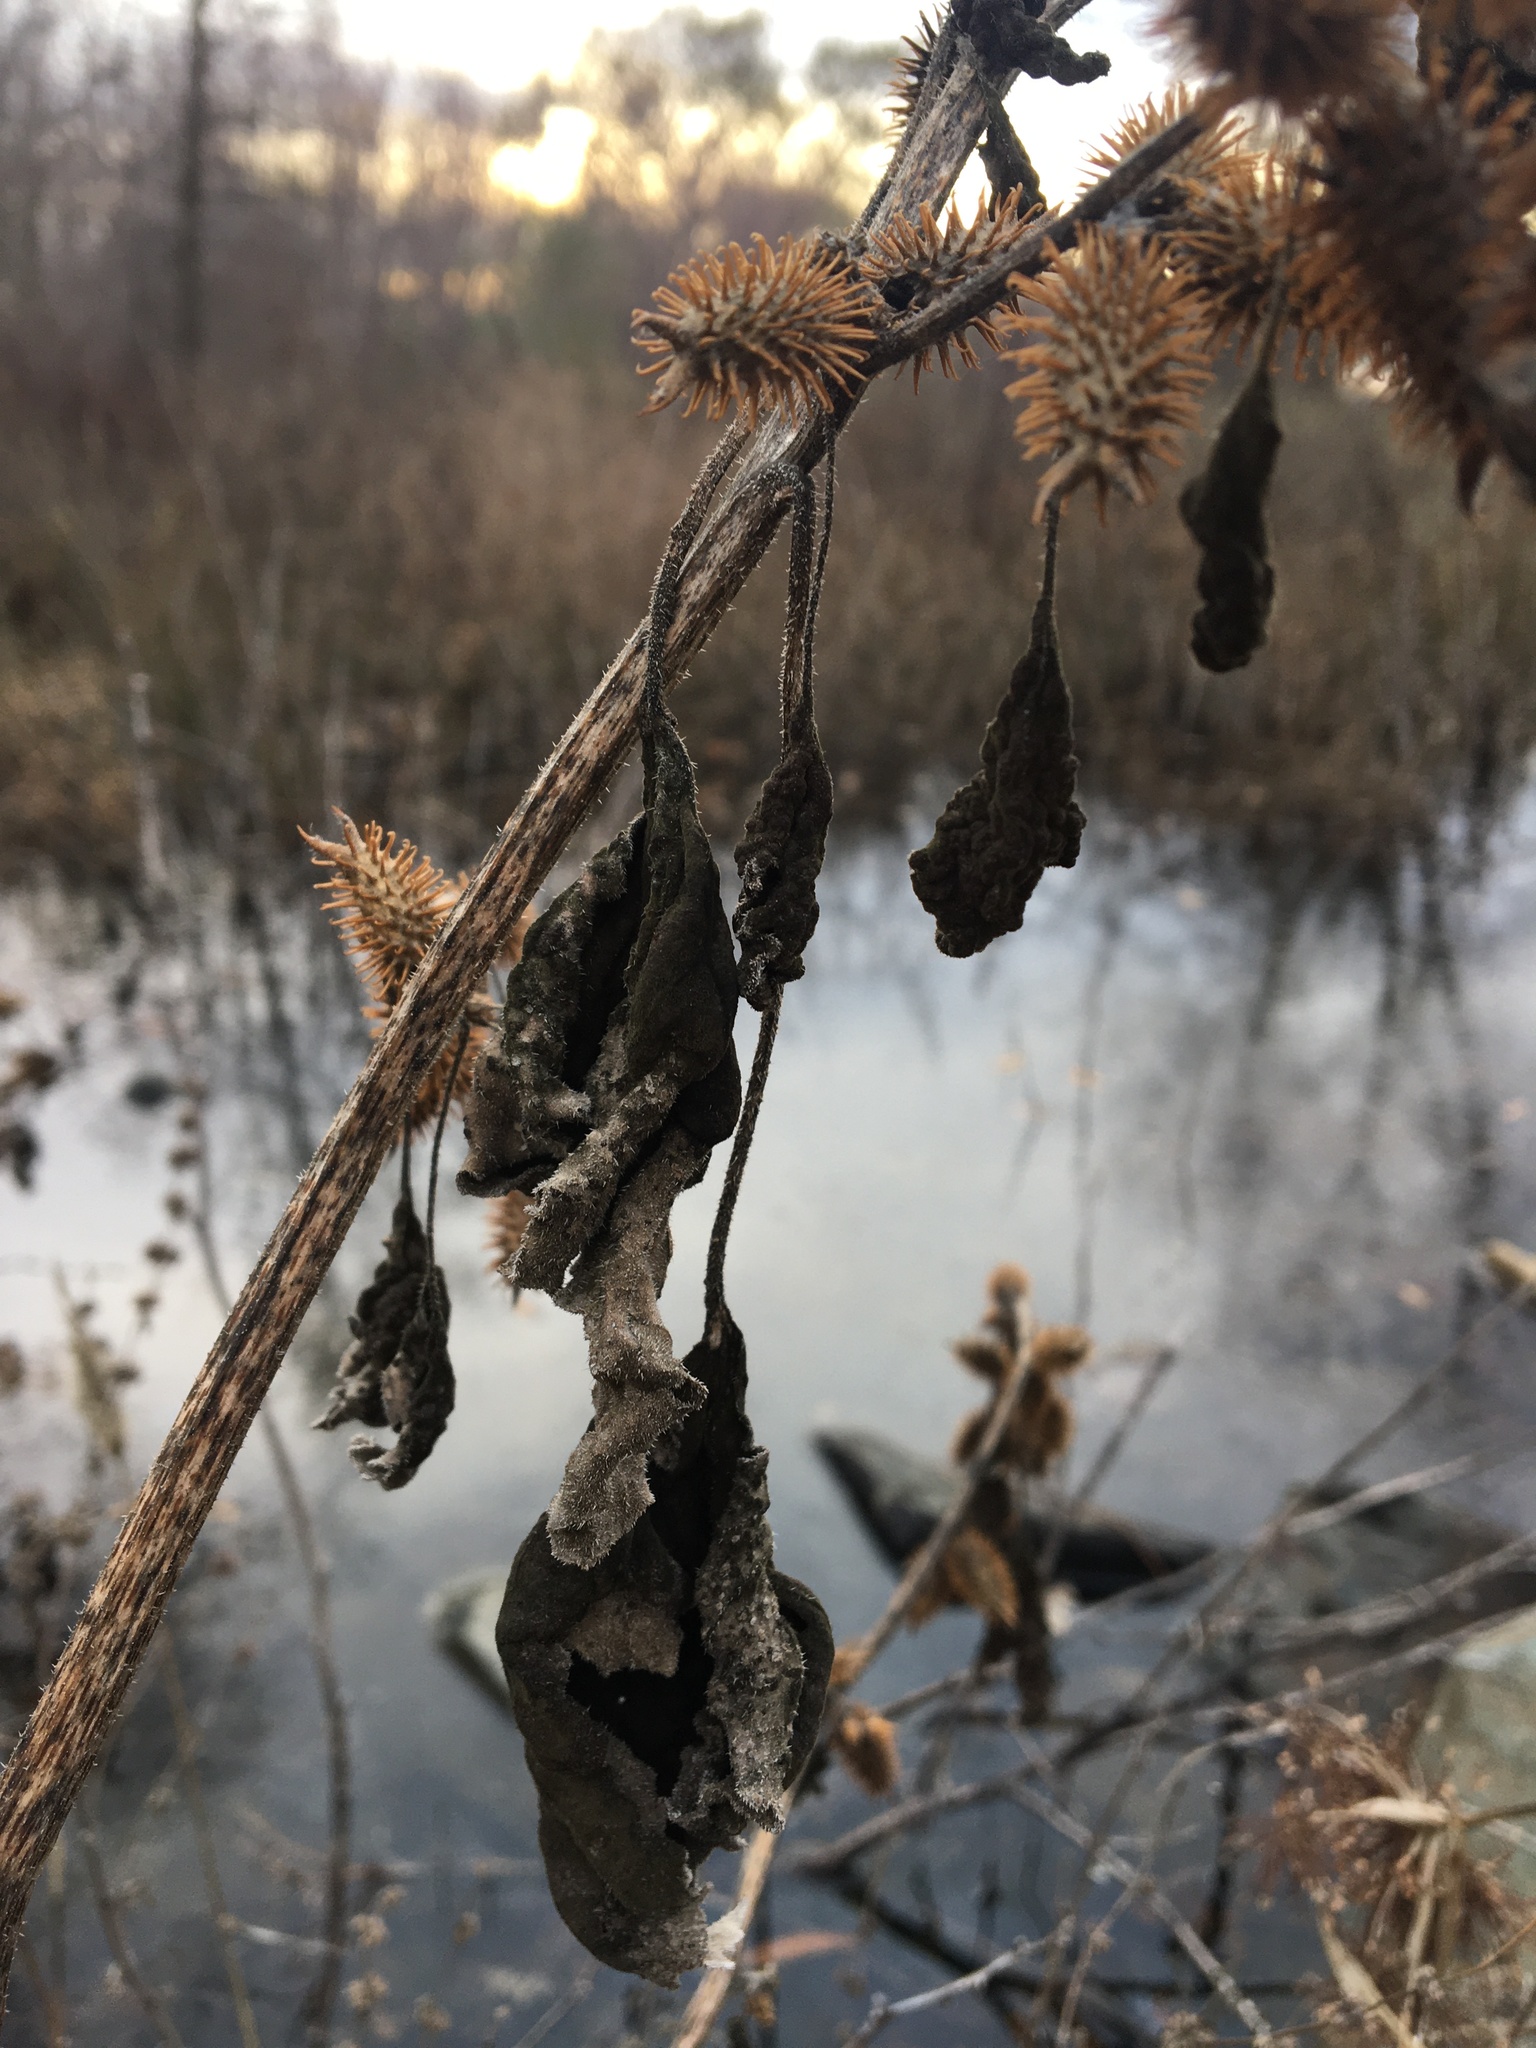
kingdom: Plantae
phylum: Tracheophyta
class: Magnoliopsida
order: Asterales
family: Asteraceae
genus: Xanthium
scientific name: Xanthium strumarium
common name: Rough cocklebur
